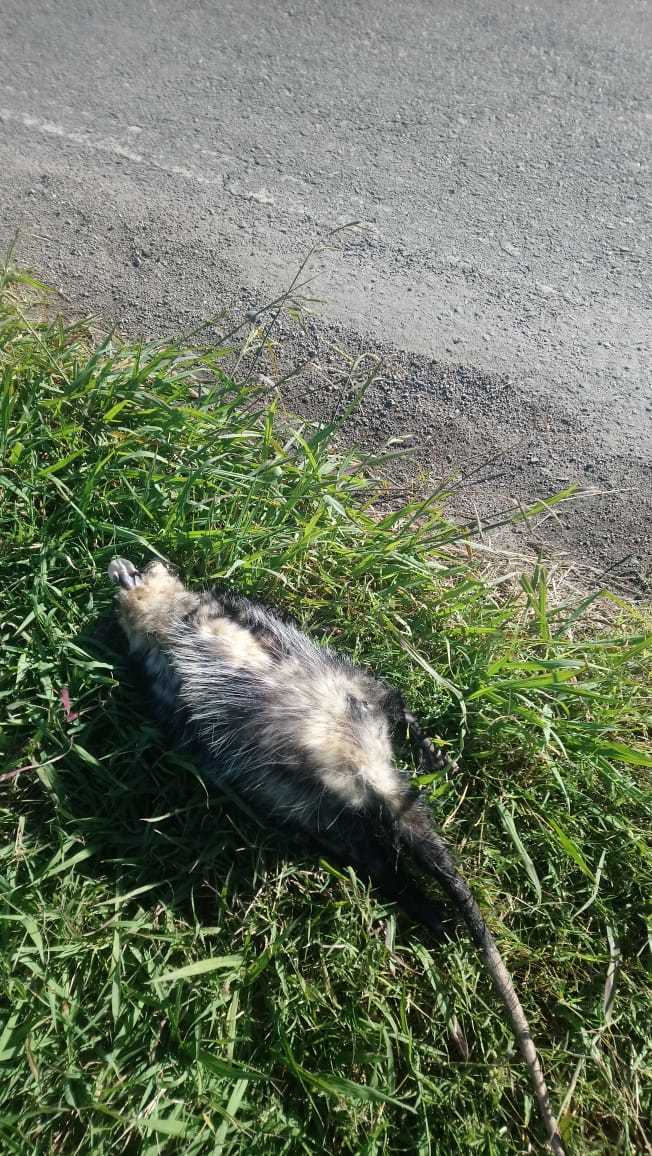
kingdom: Animalia
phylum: Chordata
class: Mammalia
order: Didelphimorphia
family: Didelphidae
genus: Didelphis
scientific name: Didelphis albiventris
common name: White-eared opossum
